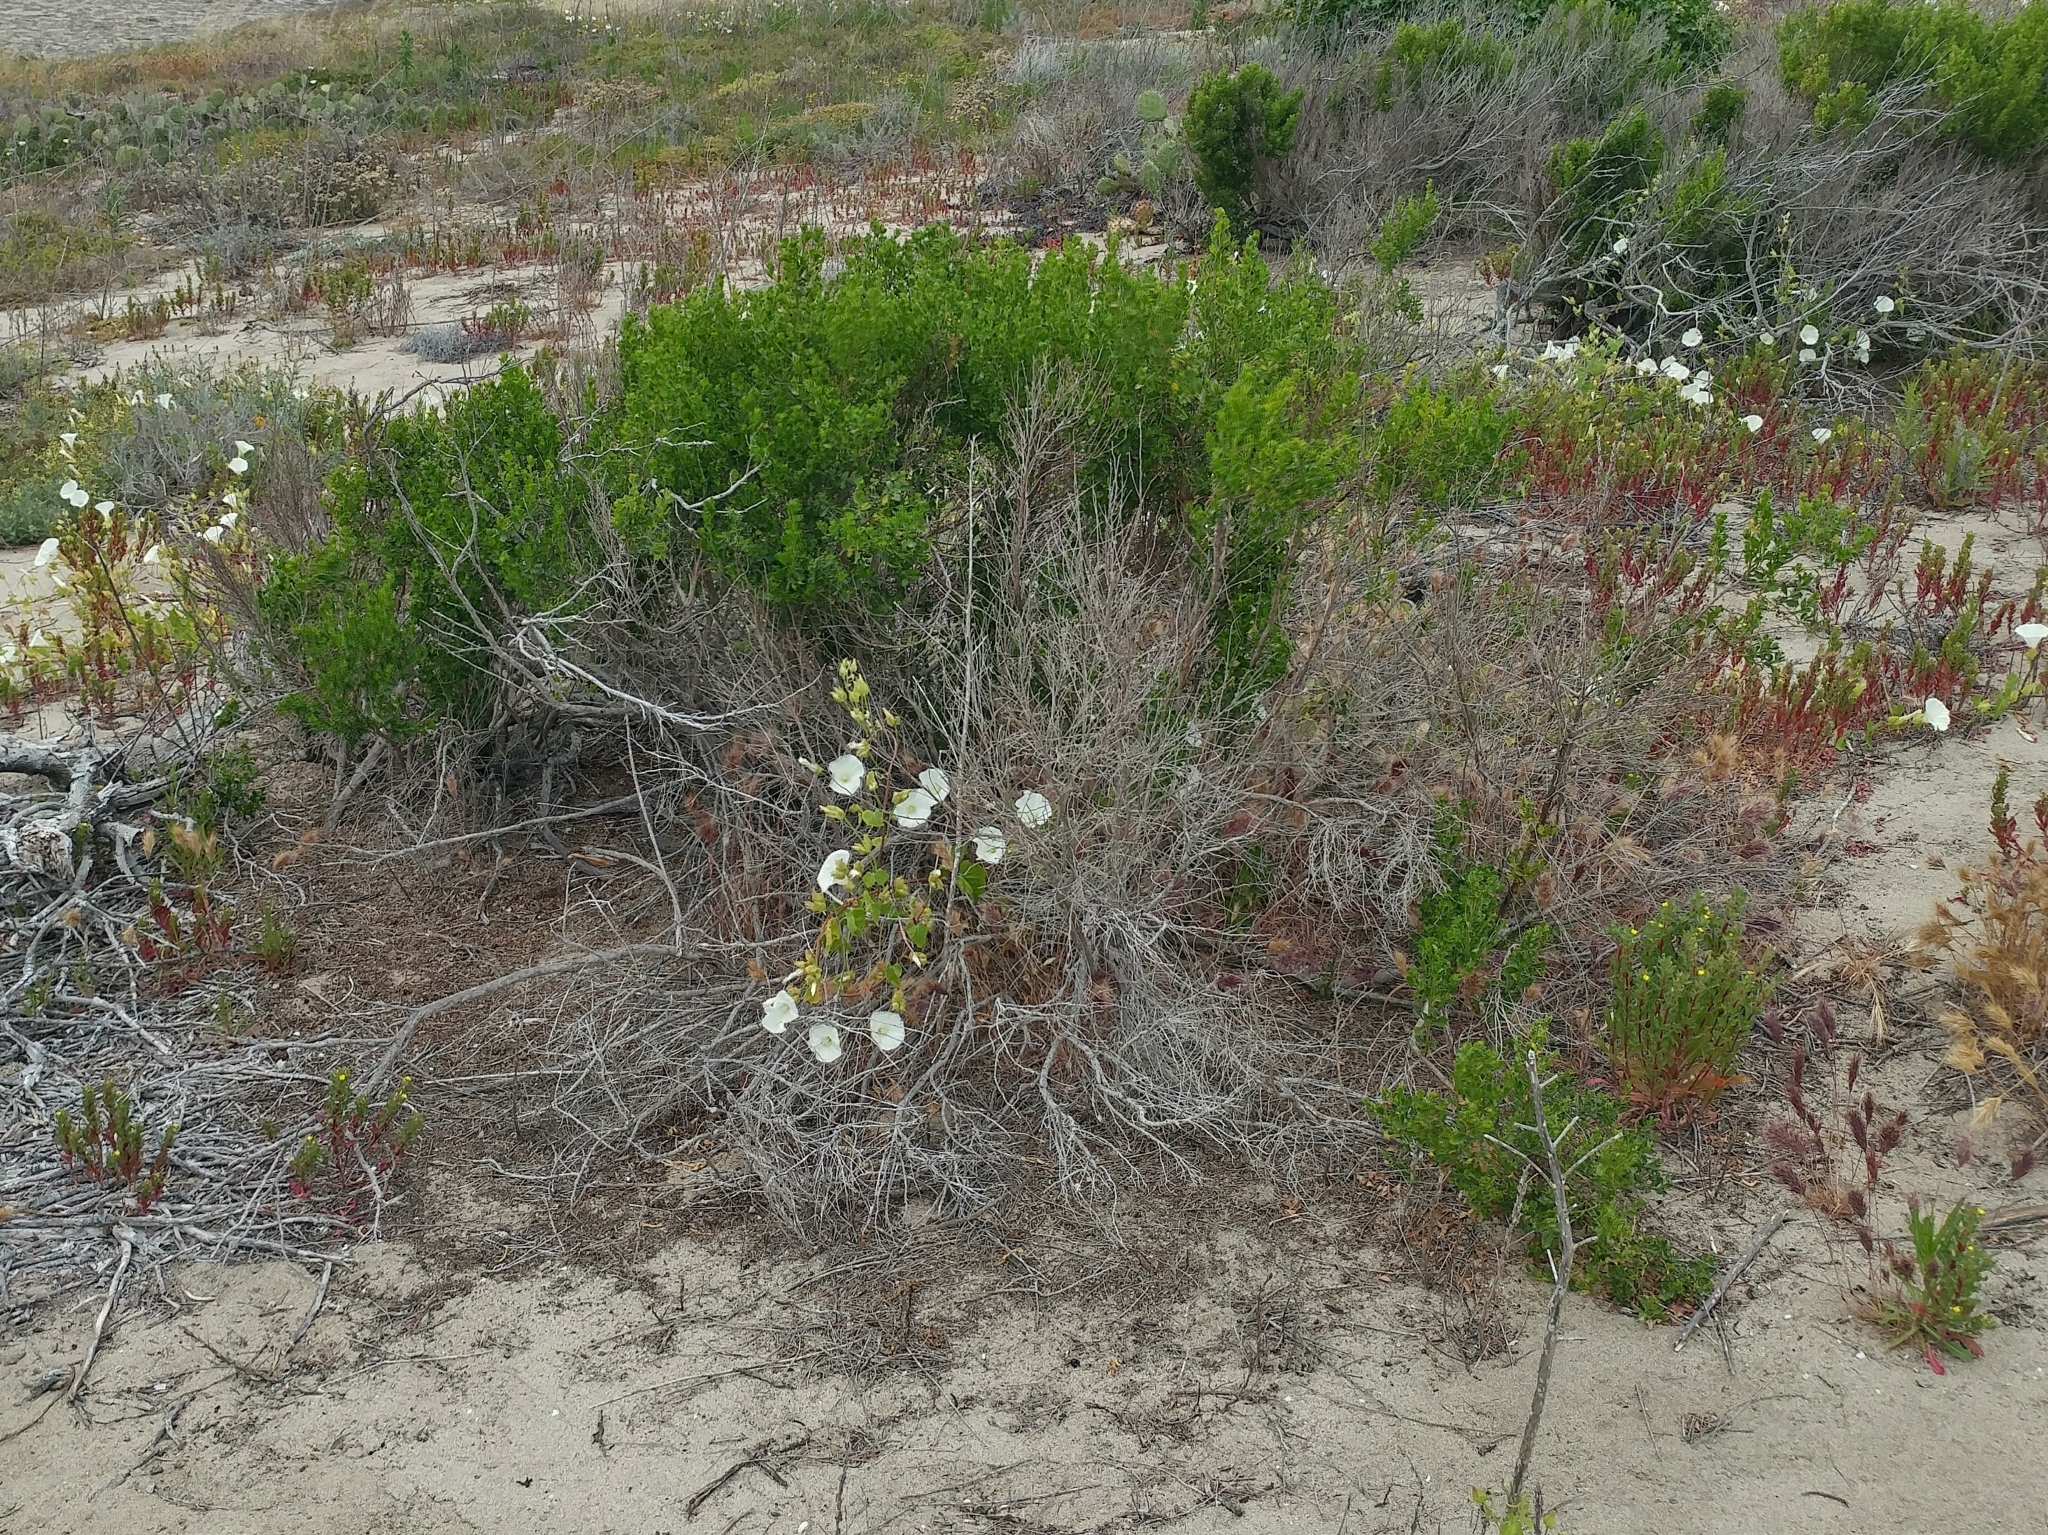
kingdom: Plantae
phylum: Tracheophyta
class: Magnoliopsida
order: Asterales
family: Asteraceae
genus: Baccharis
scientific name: Baccharis pilularis
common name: Coyotebrush
